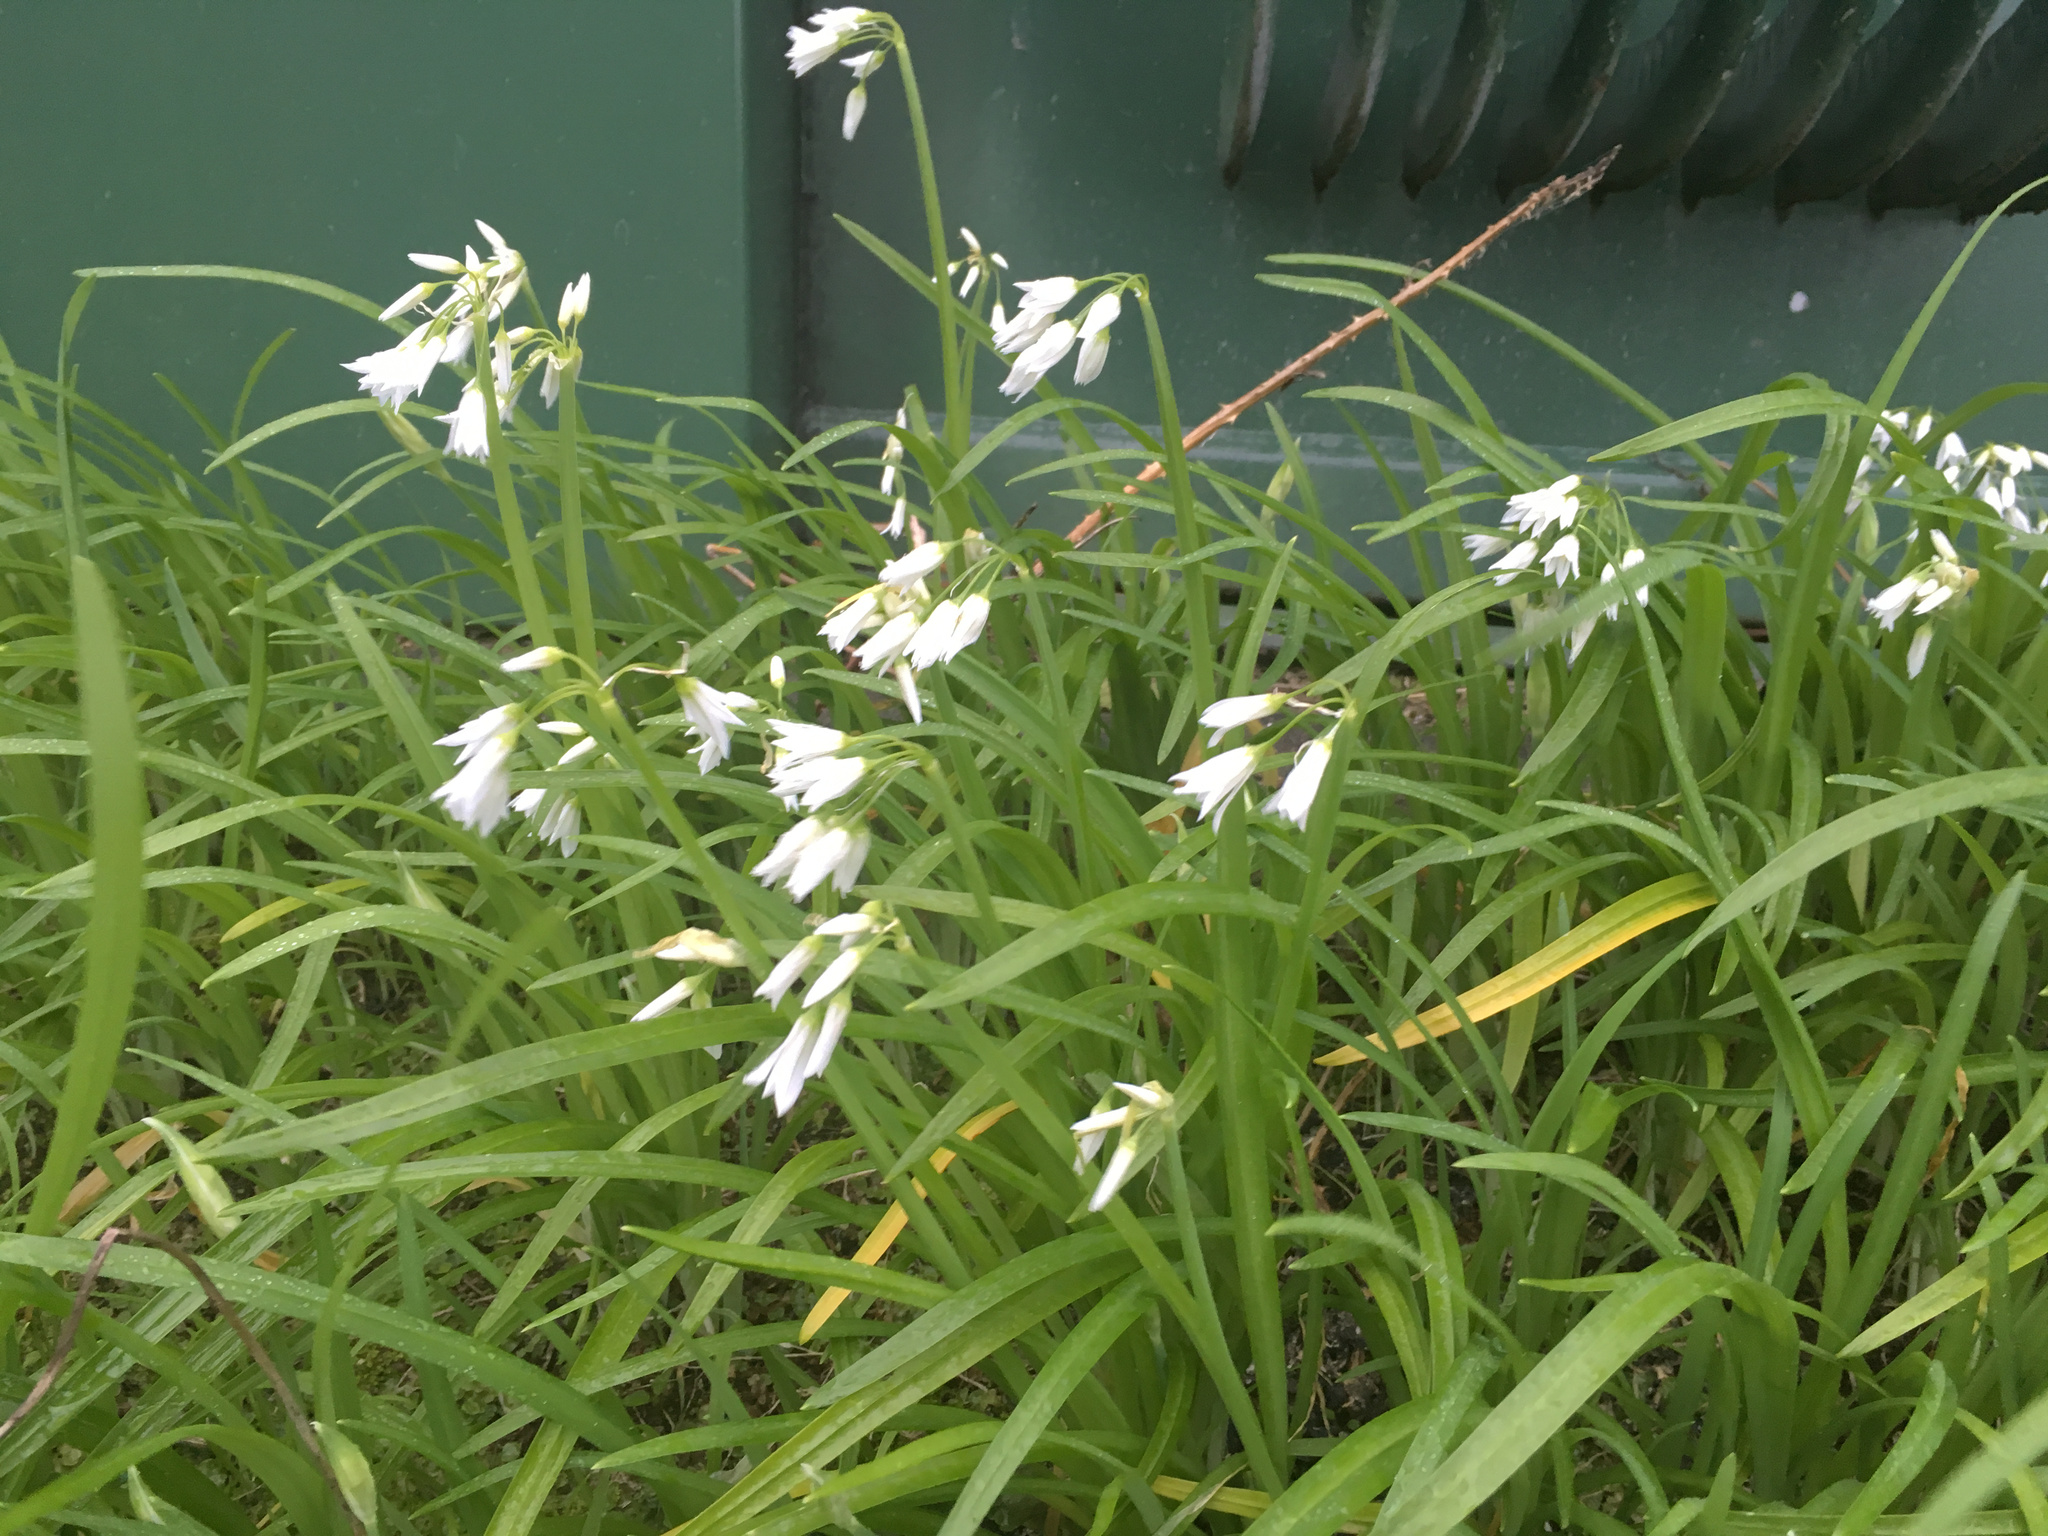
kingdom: Plantae
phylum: Tracheophyta
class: Liliopsida
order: Asparagales
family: Amaryllidaceae
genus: Allium
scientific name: Allium triquetrum
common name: Three-cornered garlic
